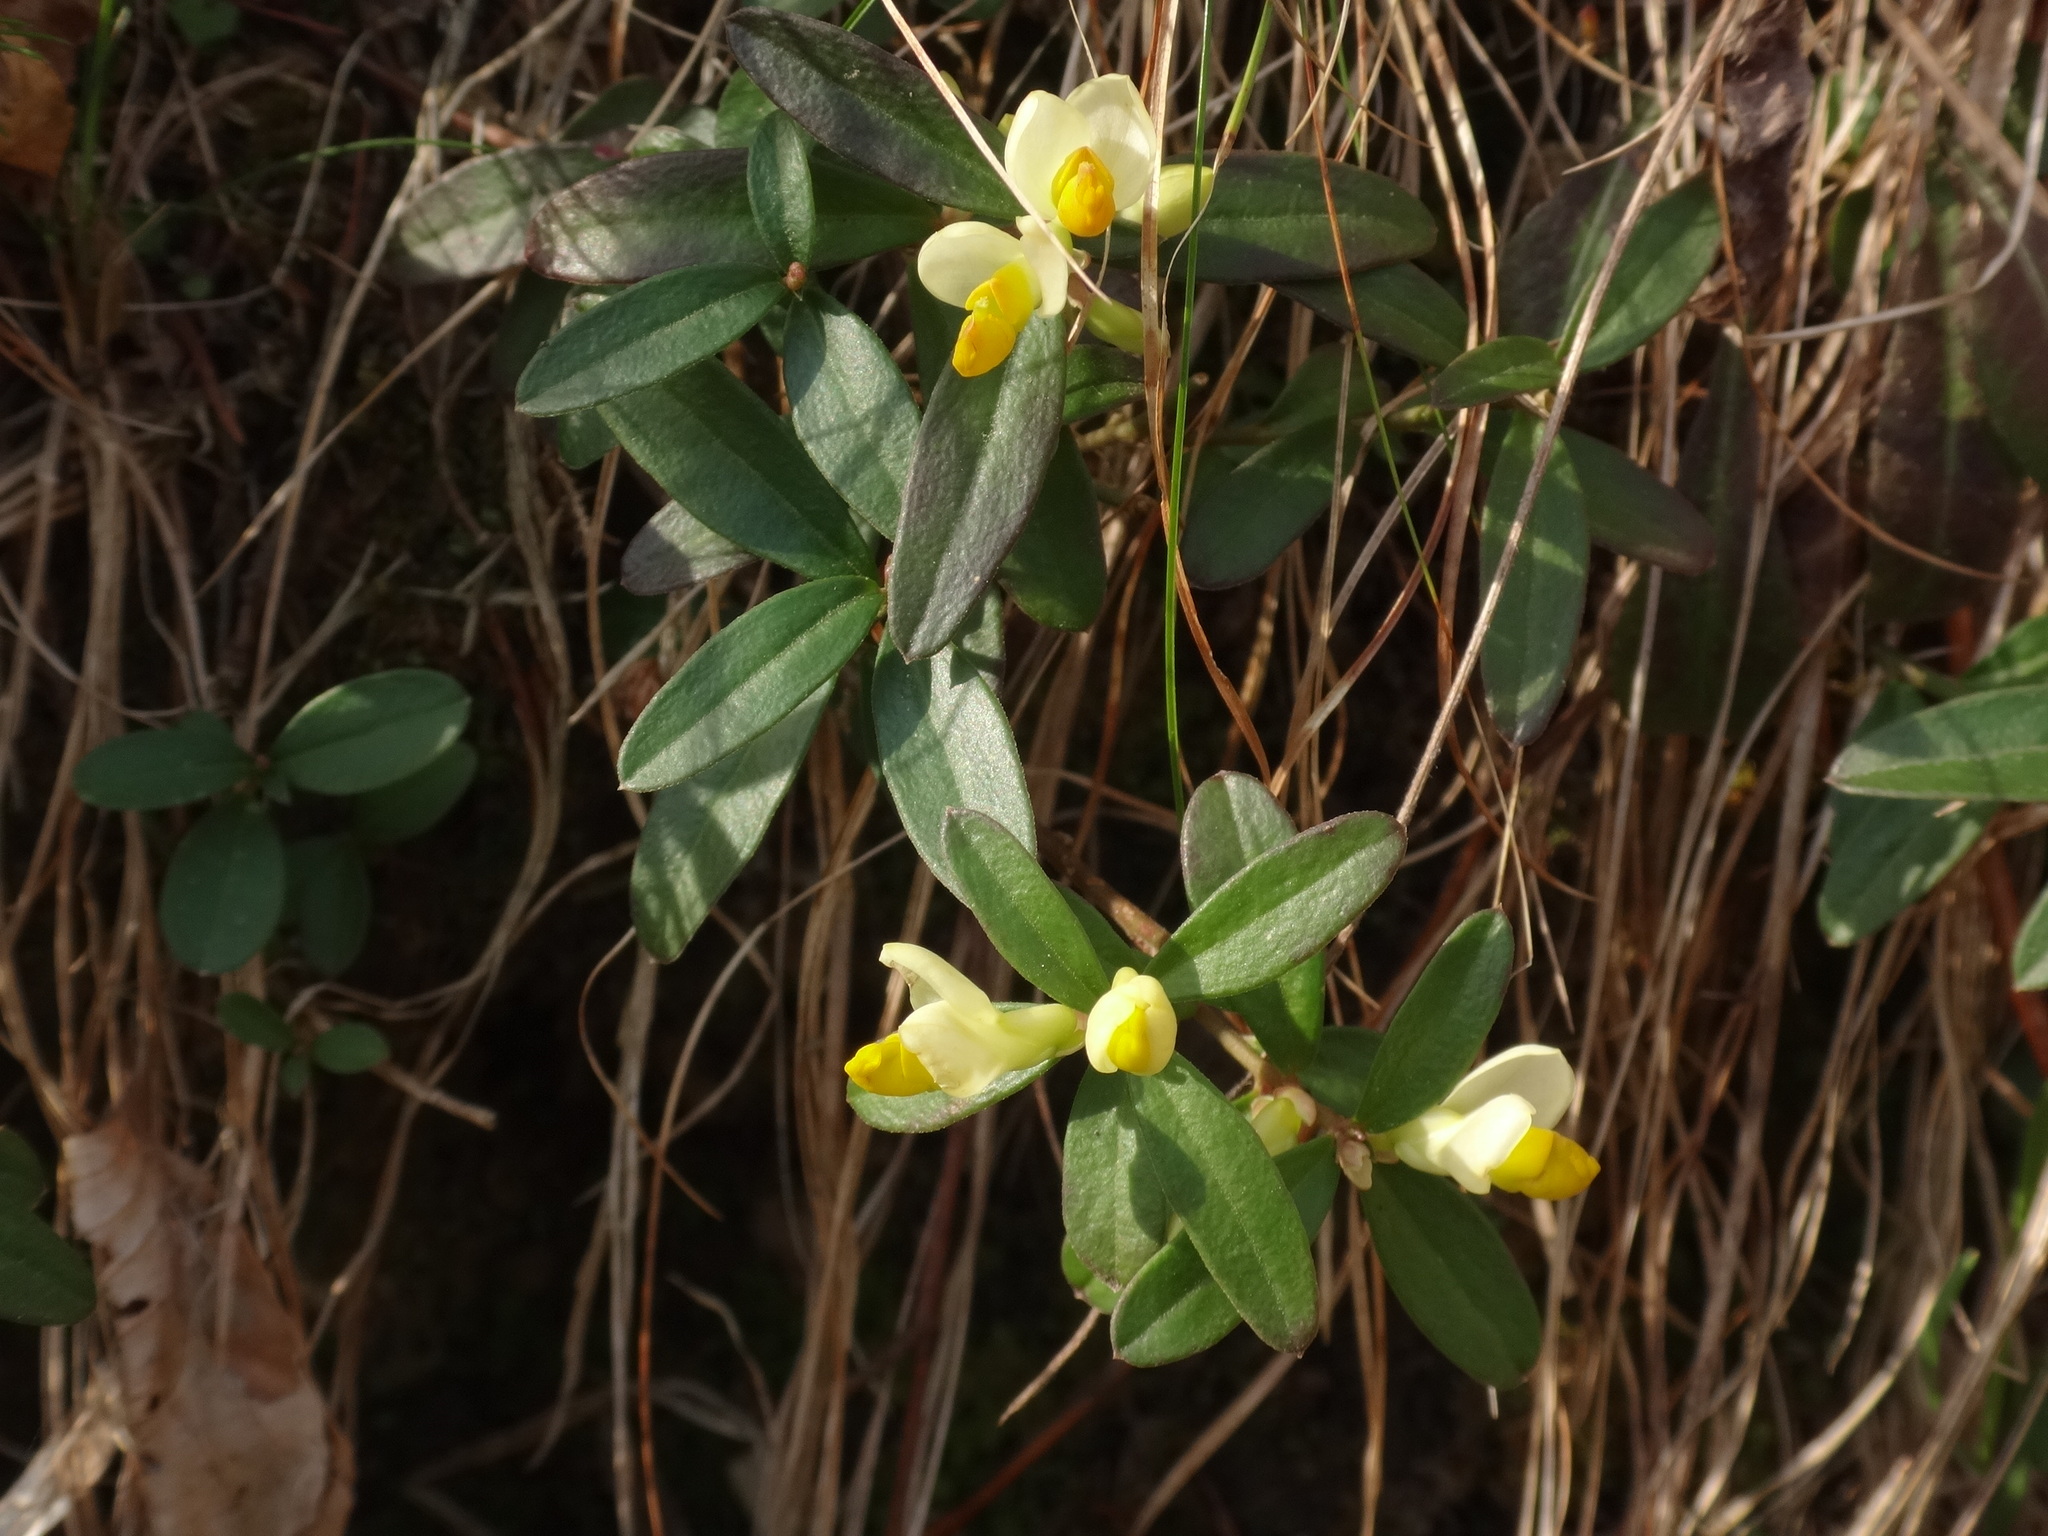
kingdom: Plantae
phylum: Tracheophyta
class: Magnoliopsida
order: Fabales
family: Polygalaceae
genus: Polygaloides
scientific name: Polygaloides chamaebuxus
